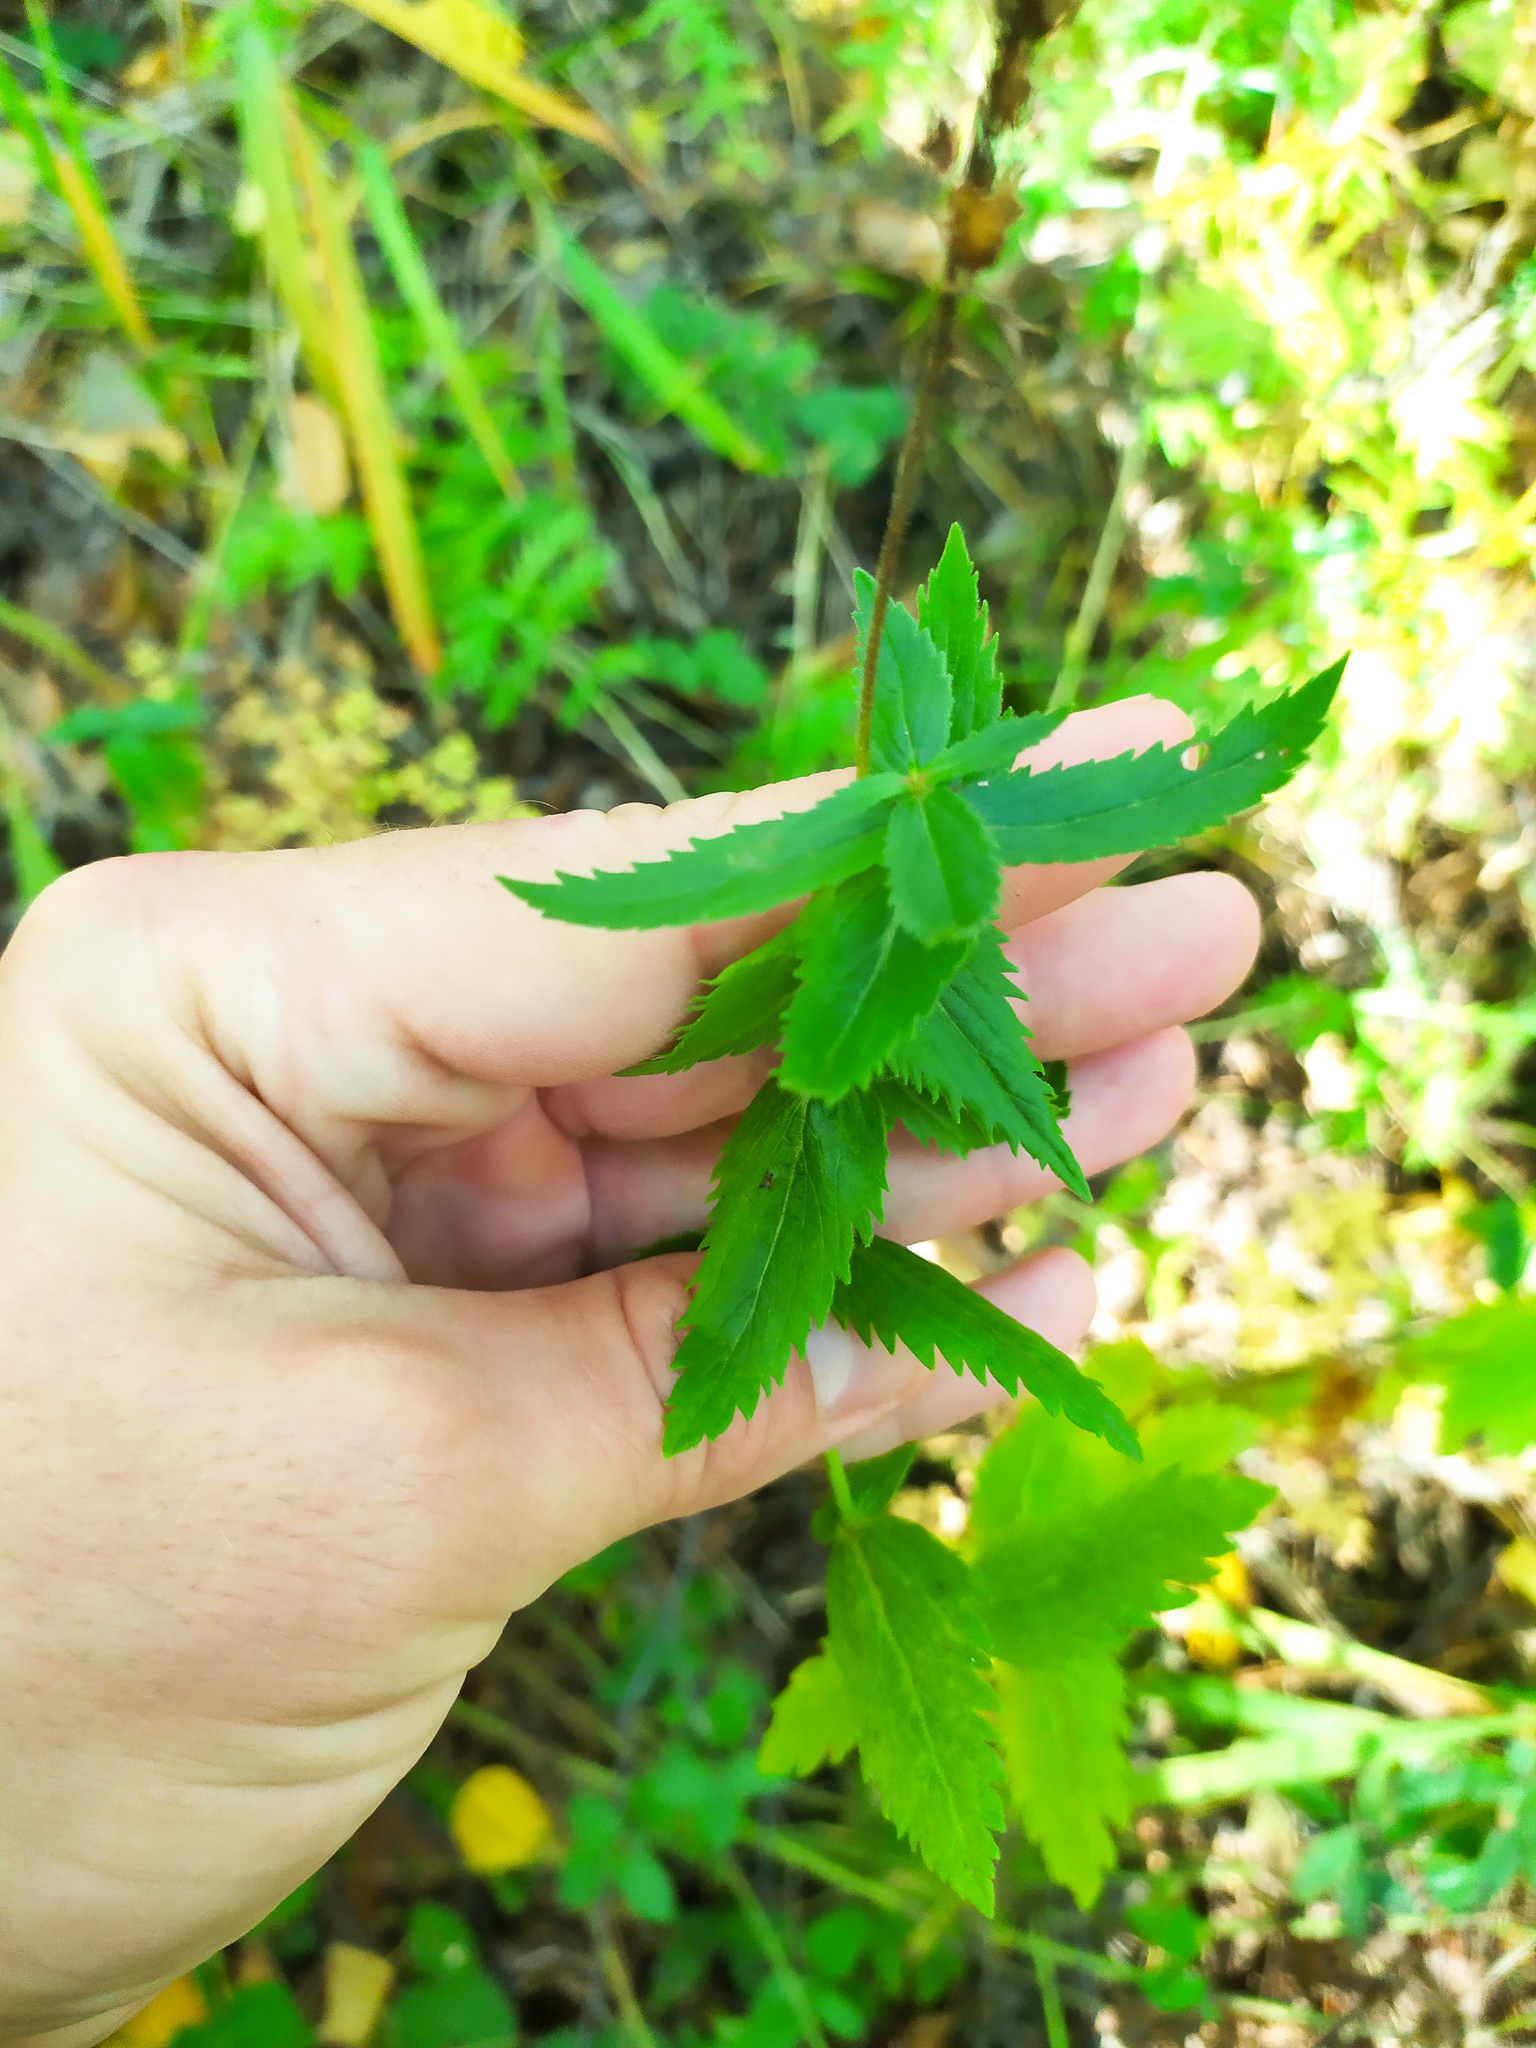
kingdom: Plantae
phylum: Tracheophyta
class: Magnoliopsida
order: Lamiales
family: Plantaginaceae
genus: Veronica
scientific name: Veronica teucrium
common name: Large speedwell
